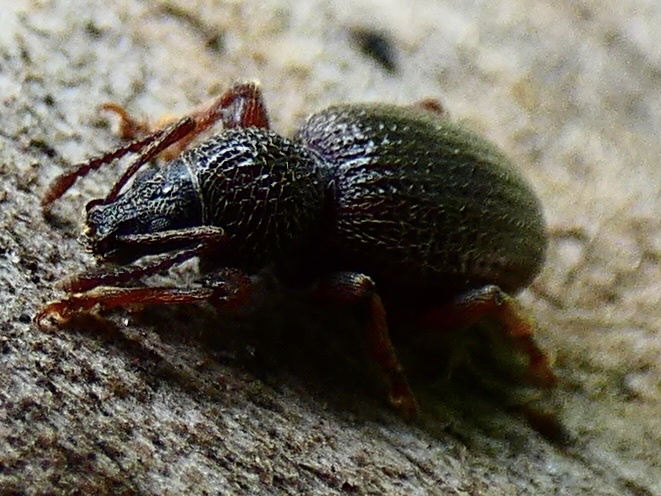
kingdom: Animalia
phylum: Arthropoda
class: Insecta
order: Coleoptera
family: Curculionidae
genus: Otiorhynchus
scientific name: Otiorhynchus ovatus
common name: Strawberry root weevil
